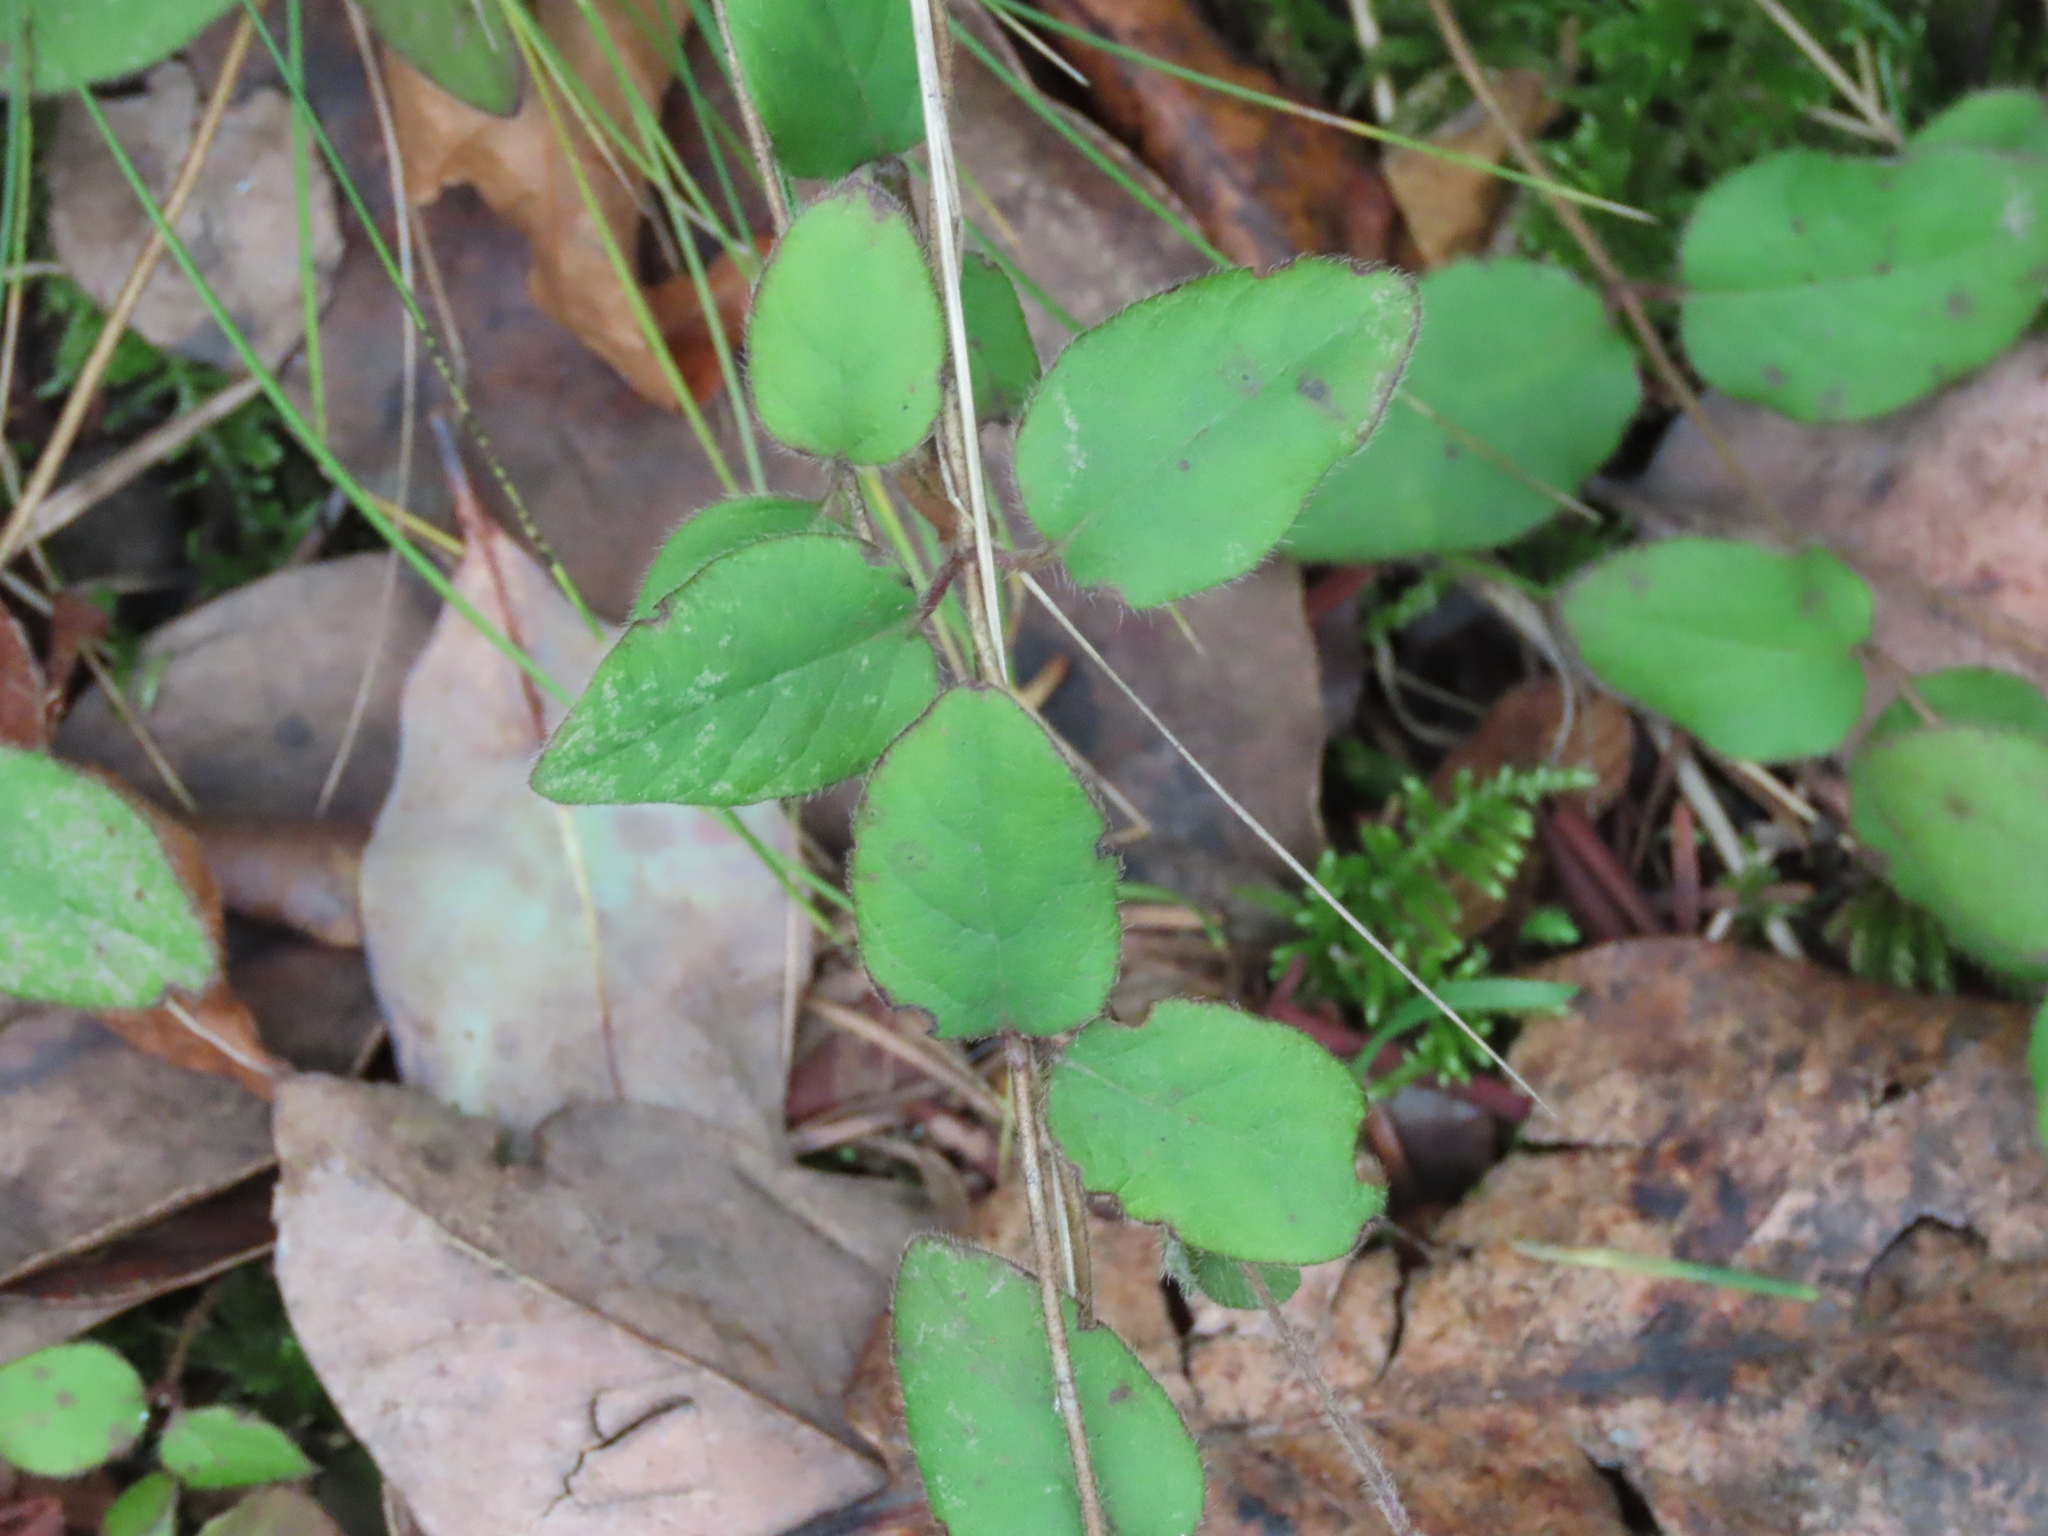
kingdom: Plantae
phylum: Tracheophyta
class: Magnoliopsida
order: Dipsacales
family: Caprifoliaceae
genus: Lonicera
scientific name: Lonicera hispidula
